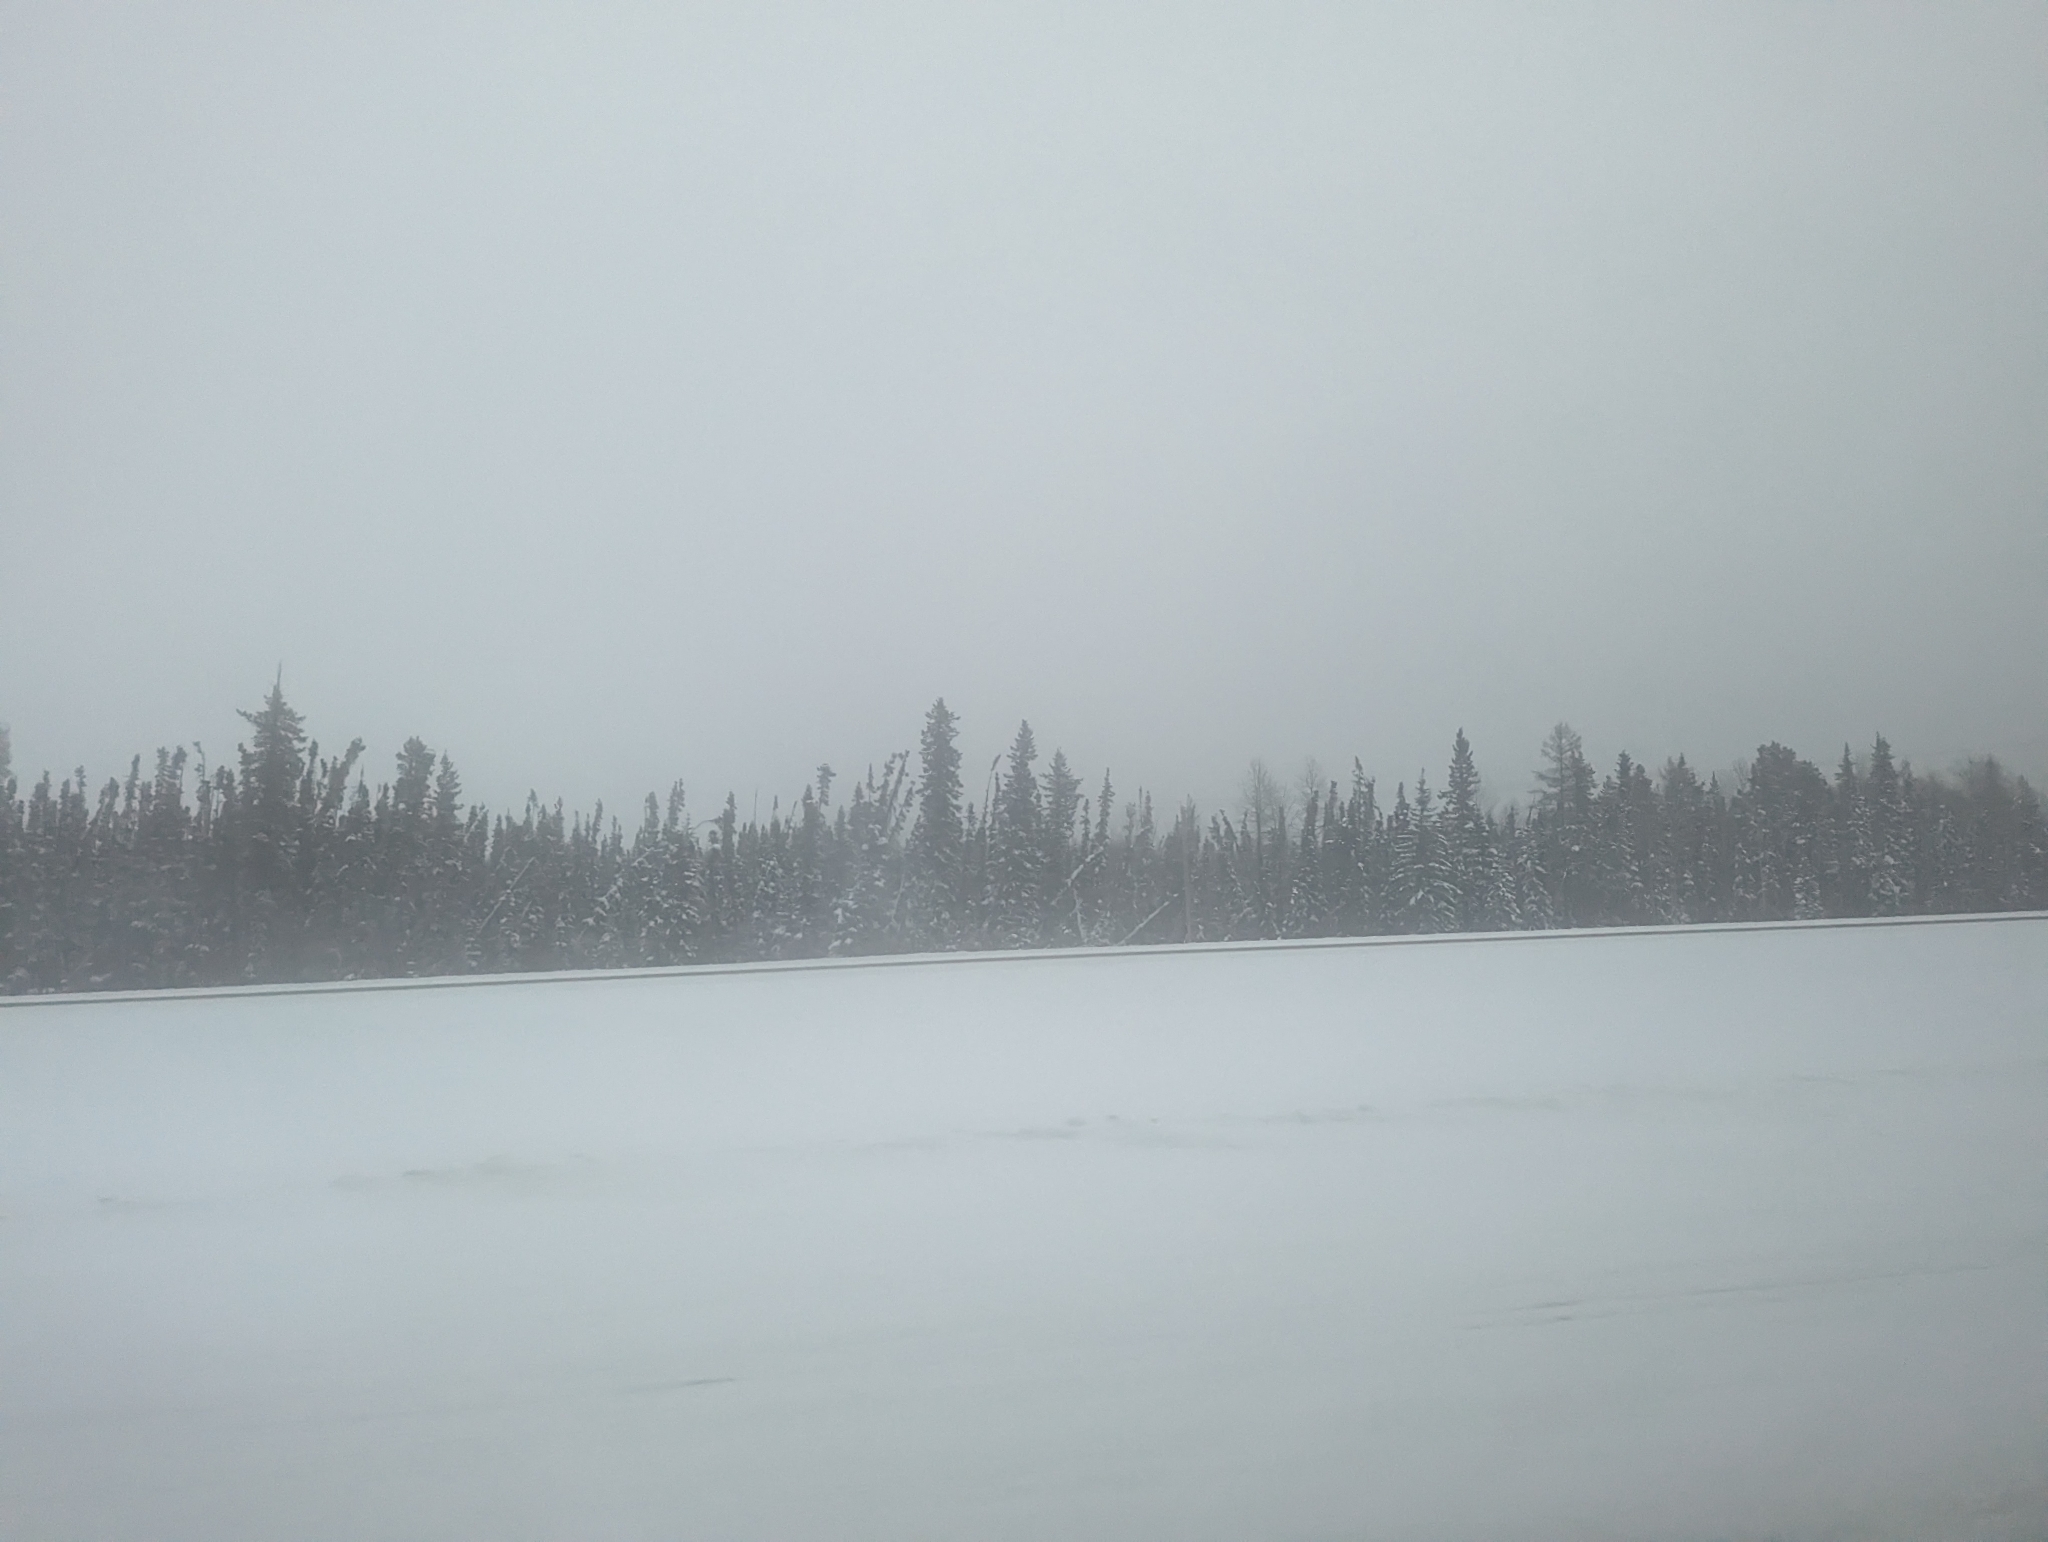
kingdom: Plantae
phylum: Tracheophyta
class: Pinopsida
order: Pinales
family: Pinaceae
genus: Picea
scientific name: Picea mariana
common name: Black spruce
